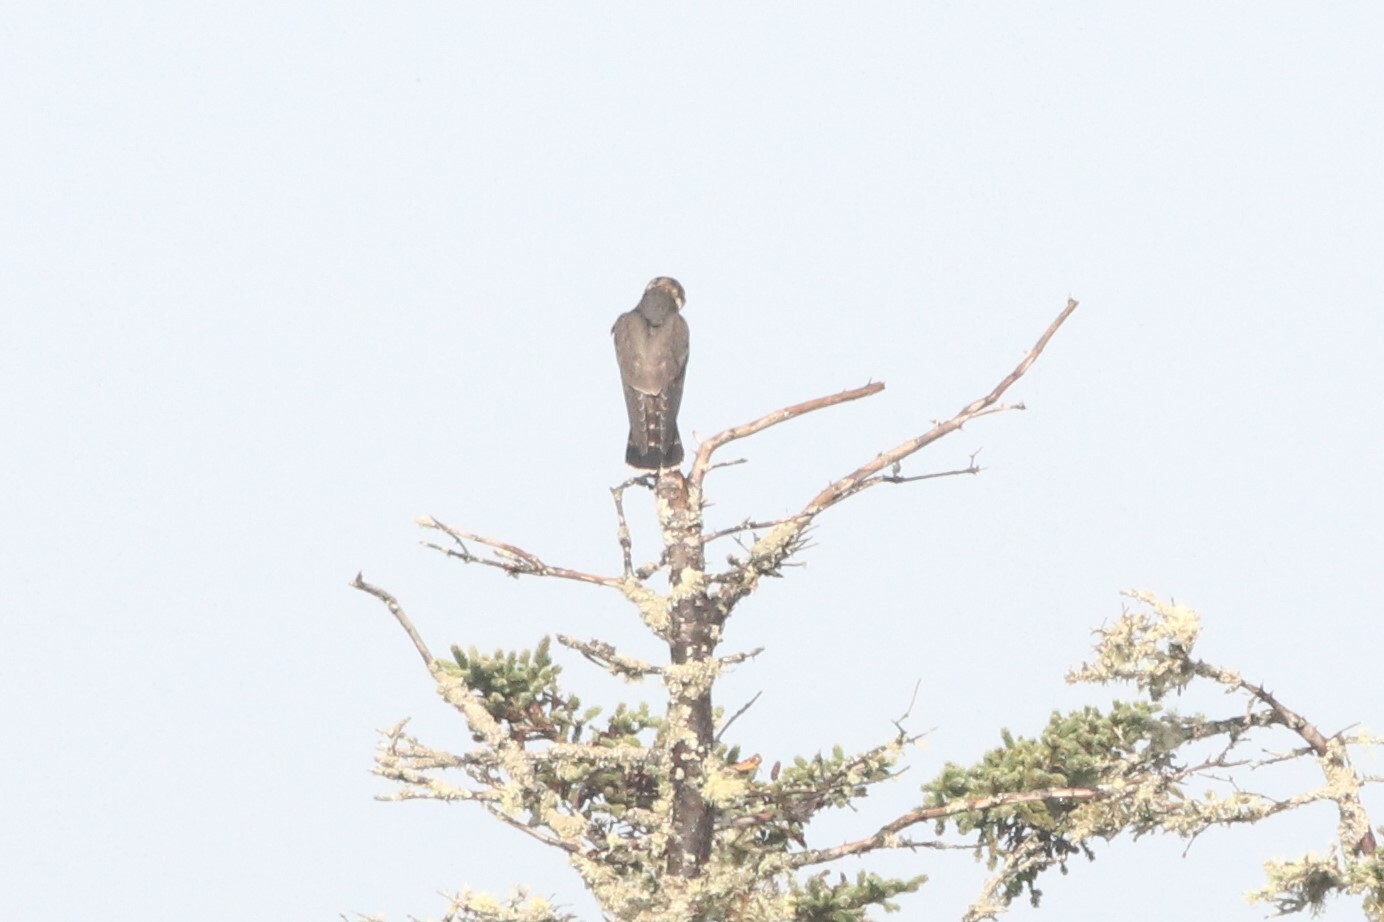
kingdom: Animalia
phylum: Chordata
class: Aves
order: Falconiformes
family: Falconidae
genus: Falco
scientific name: Falco columbarius
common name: Merlin
